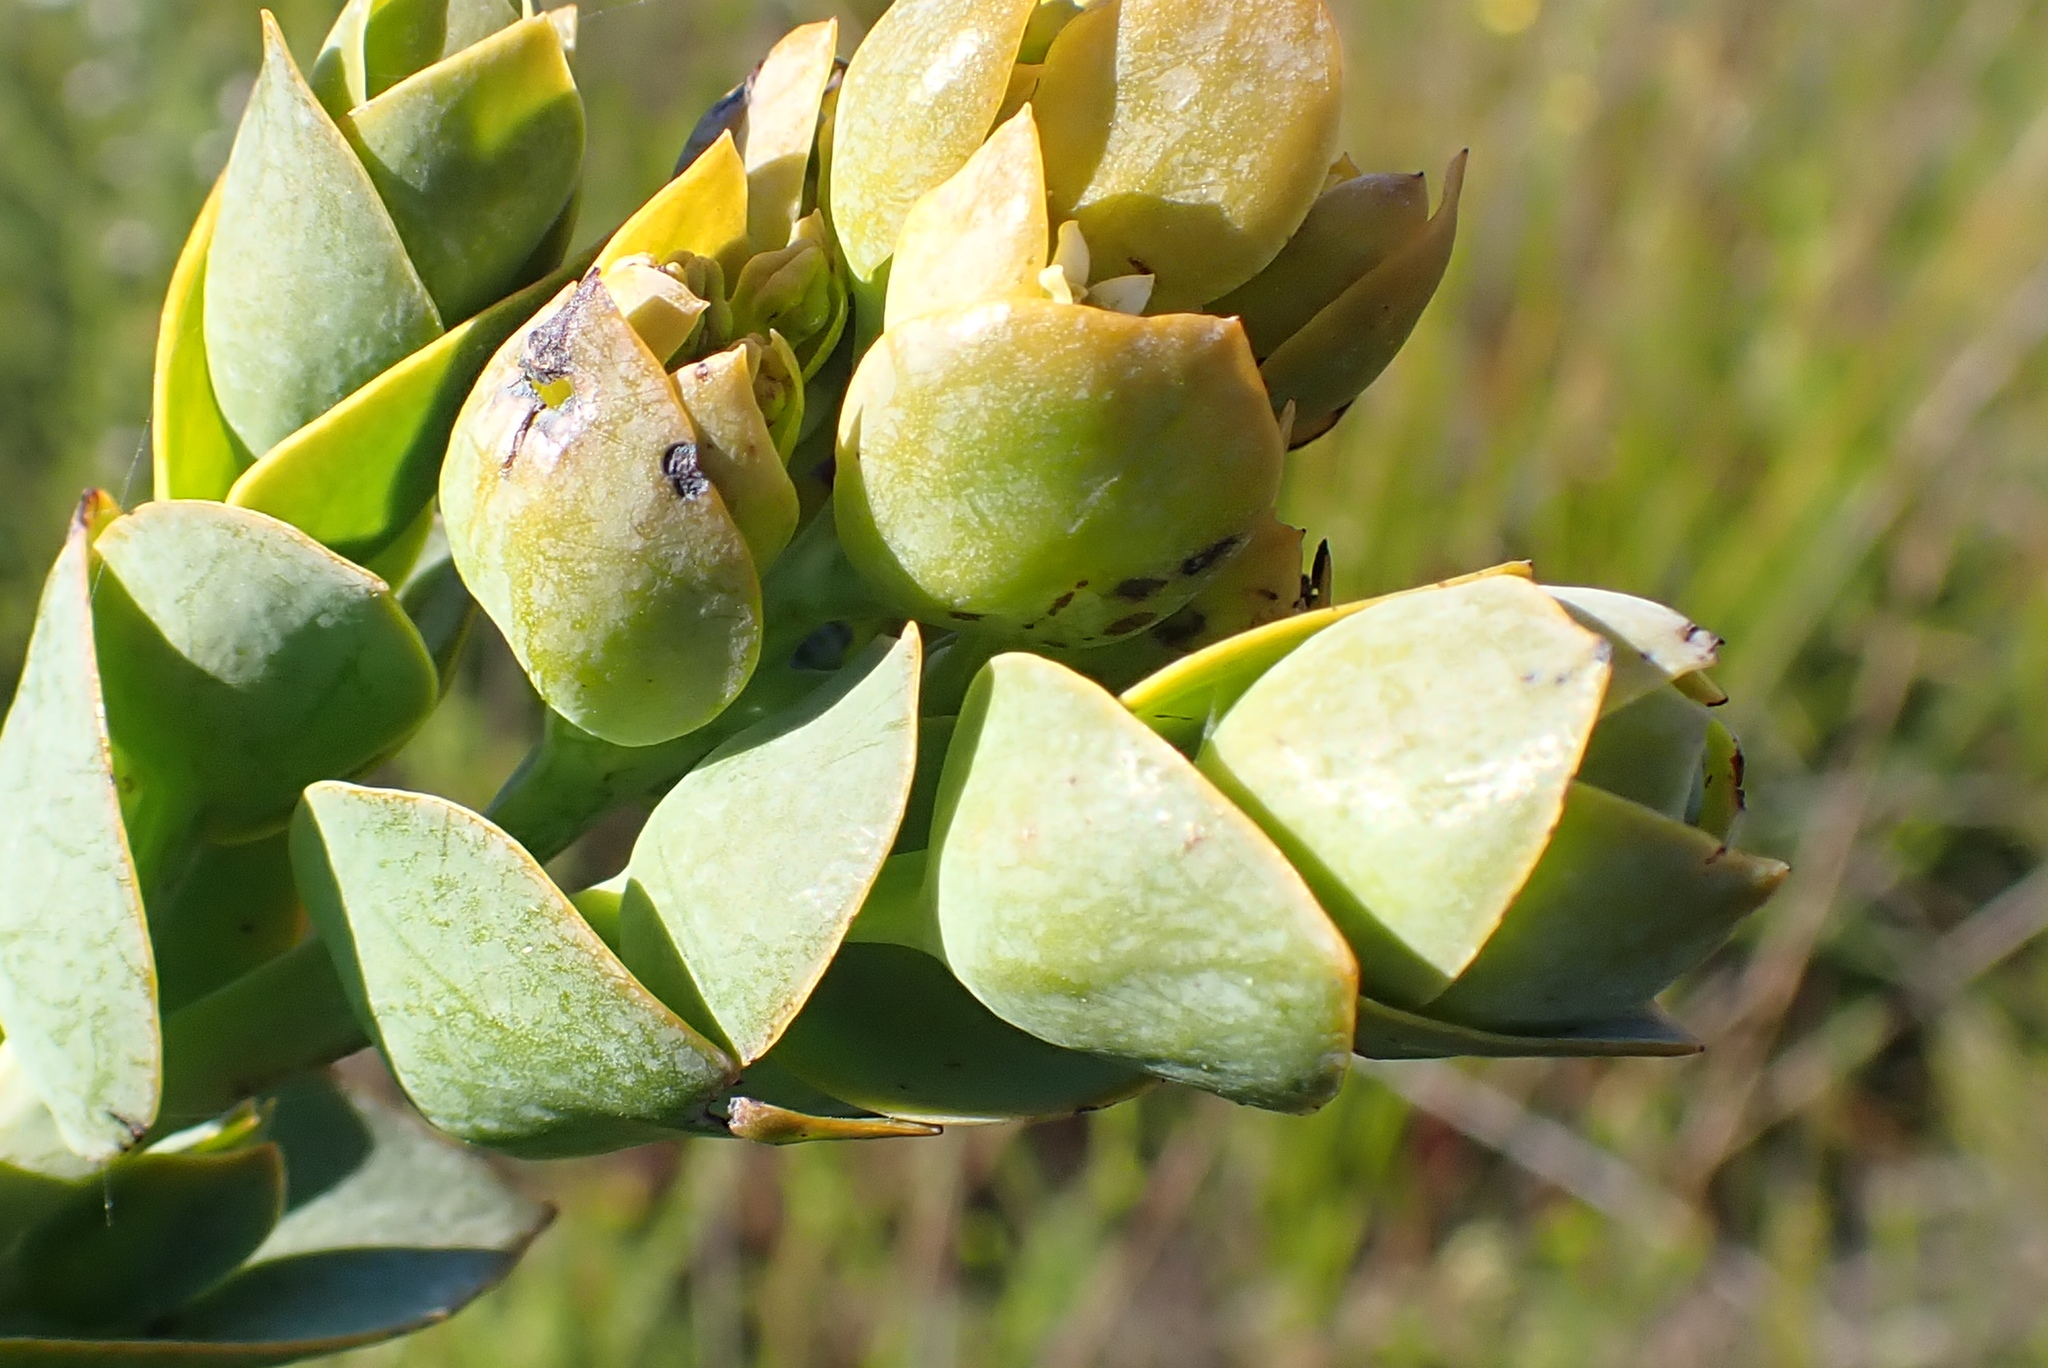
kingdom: Plantae
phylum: Tracheophyta
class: Magnoliopsida
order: Santalales
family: Thesiaceae
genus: Thesium
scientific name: Thesium euphorbioides
